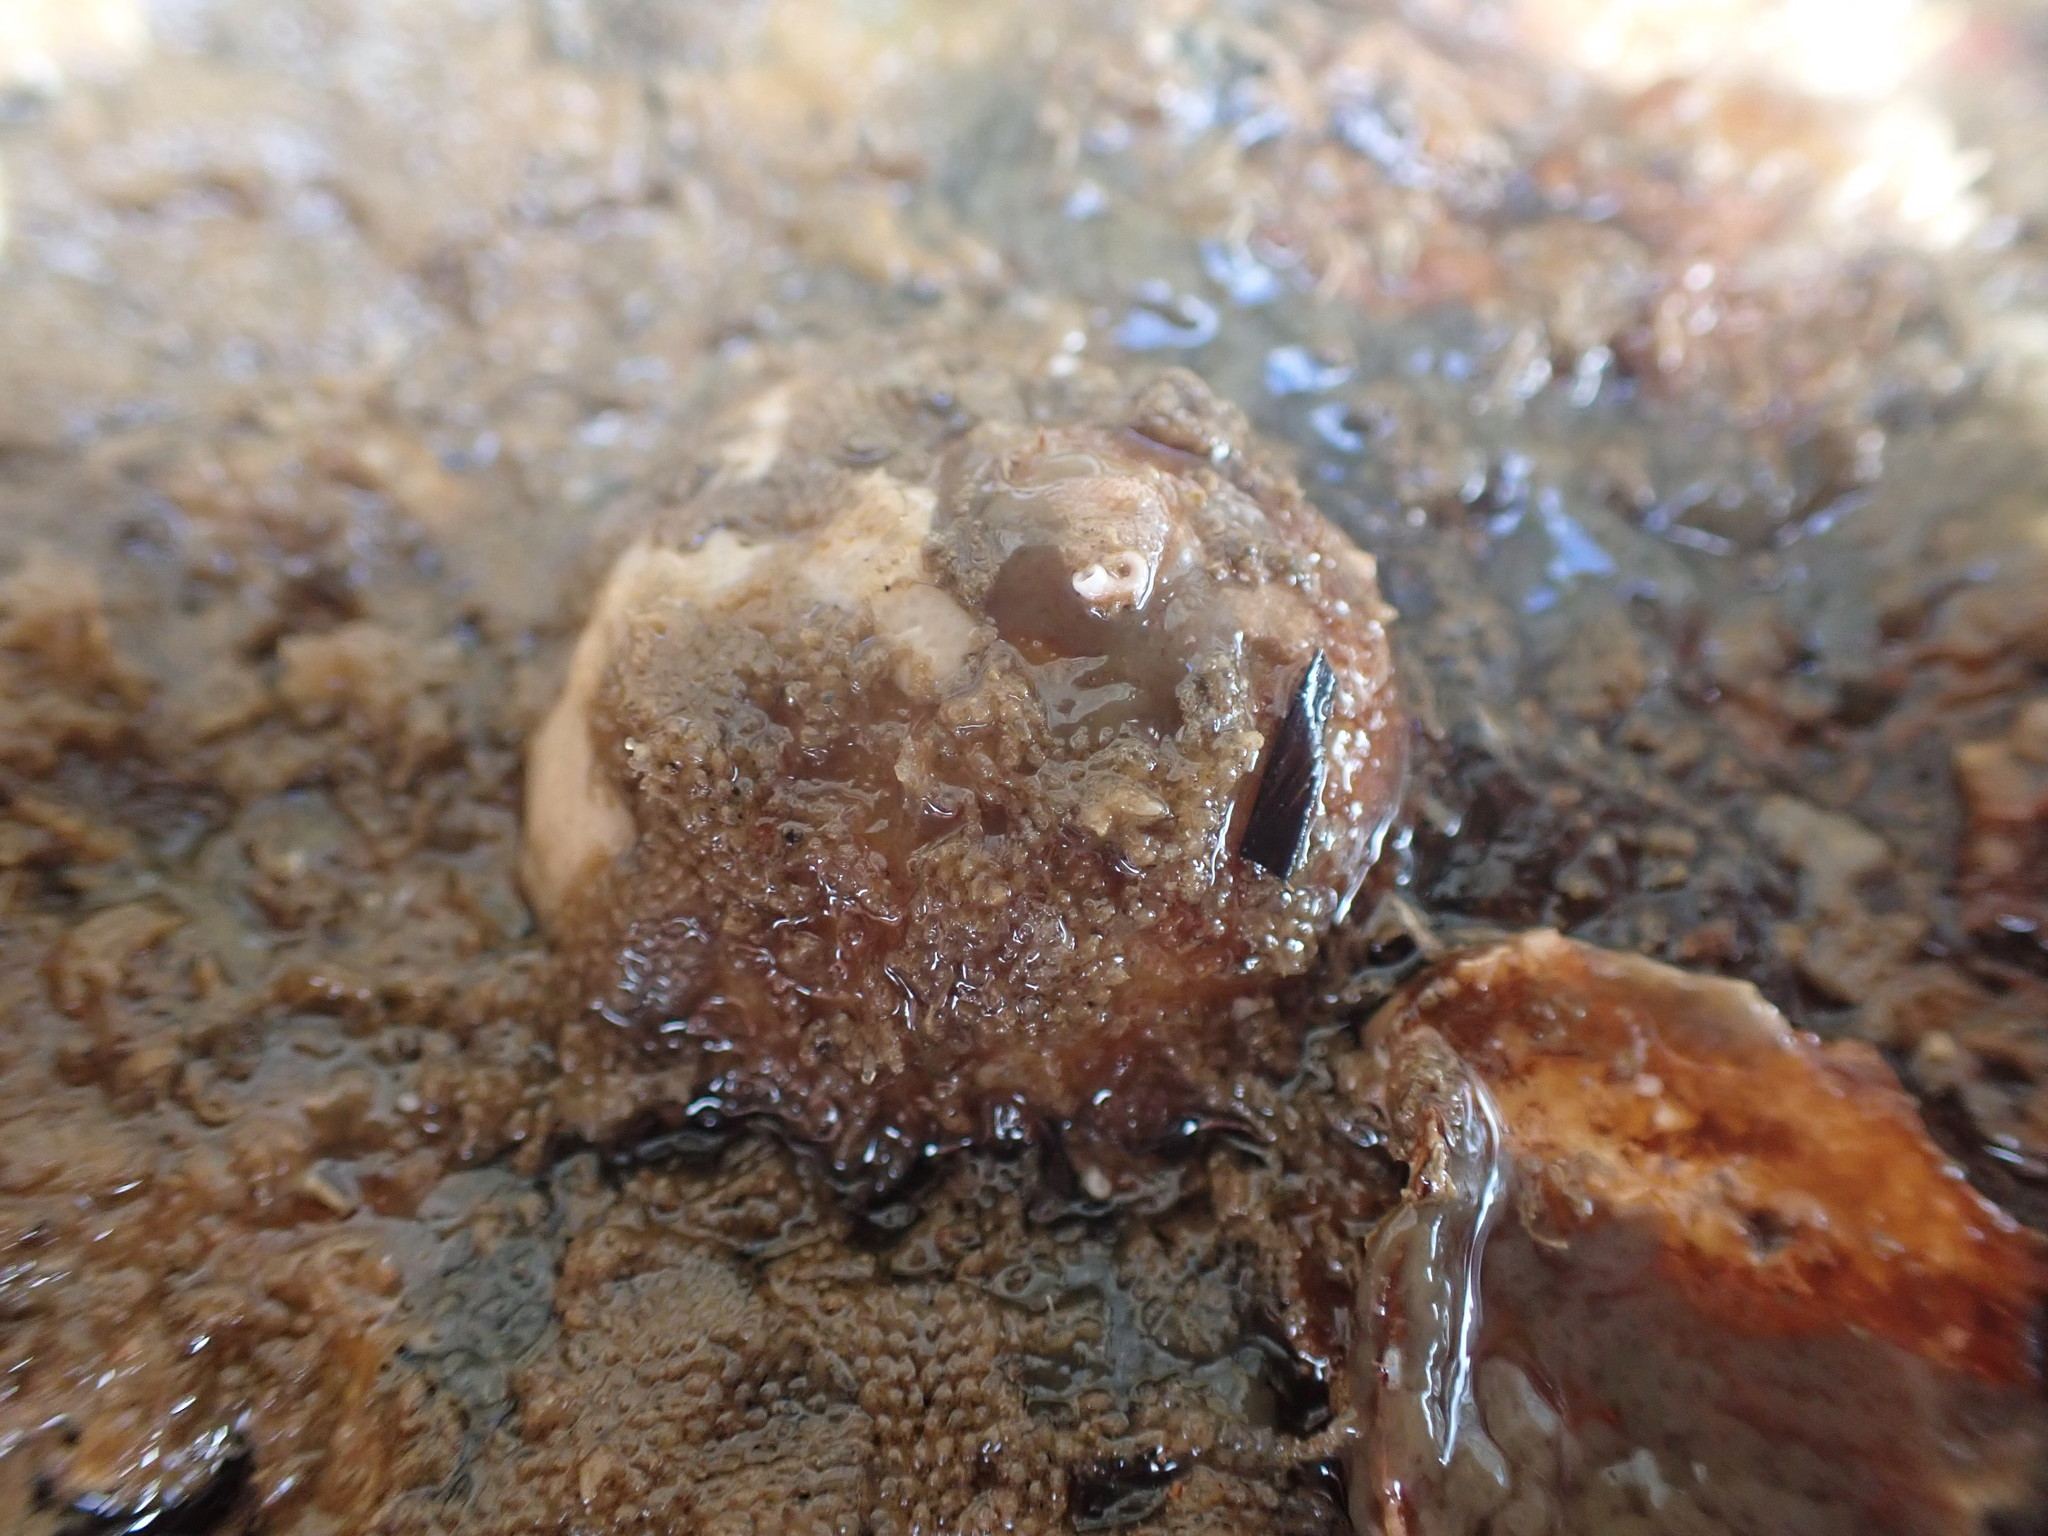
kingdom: Animalia
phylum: Mollusca
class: Gastropoda
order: Littorinimorpha
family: Calyptraeidae
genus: Sigapatella
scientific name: Sigapatella novaezelandiae
